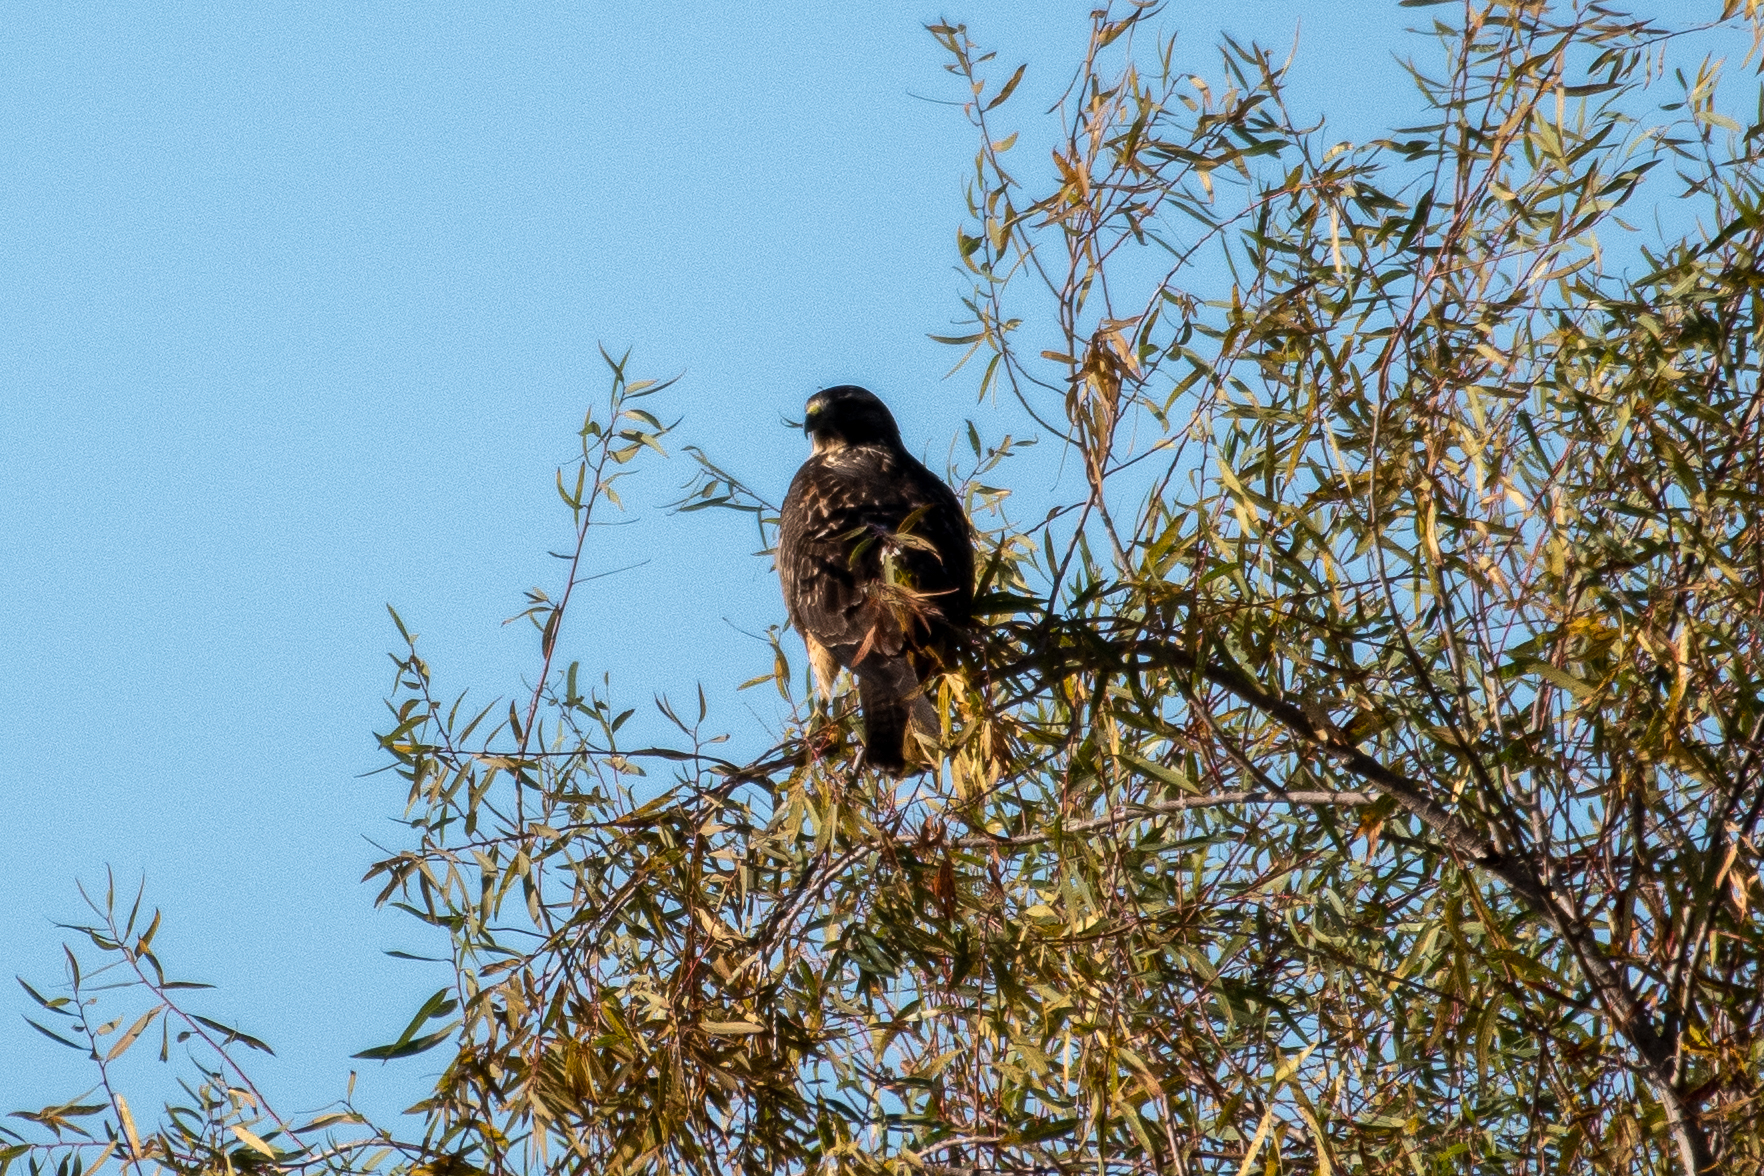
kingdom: Animalia
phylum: Chordata
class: Aves
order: Accipitriformes
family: Accipitridae
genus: Buteo
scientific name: Buteo jamaicensis
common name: Red-tailed hawk
